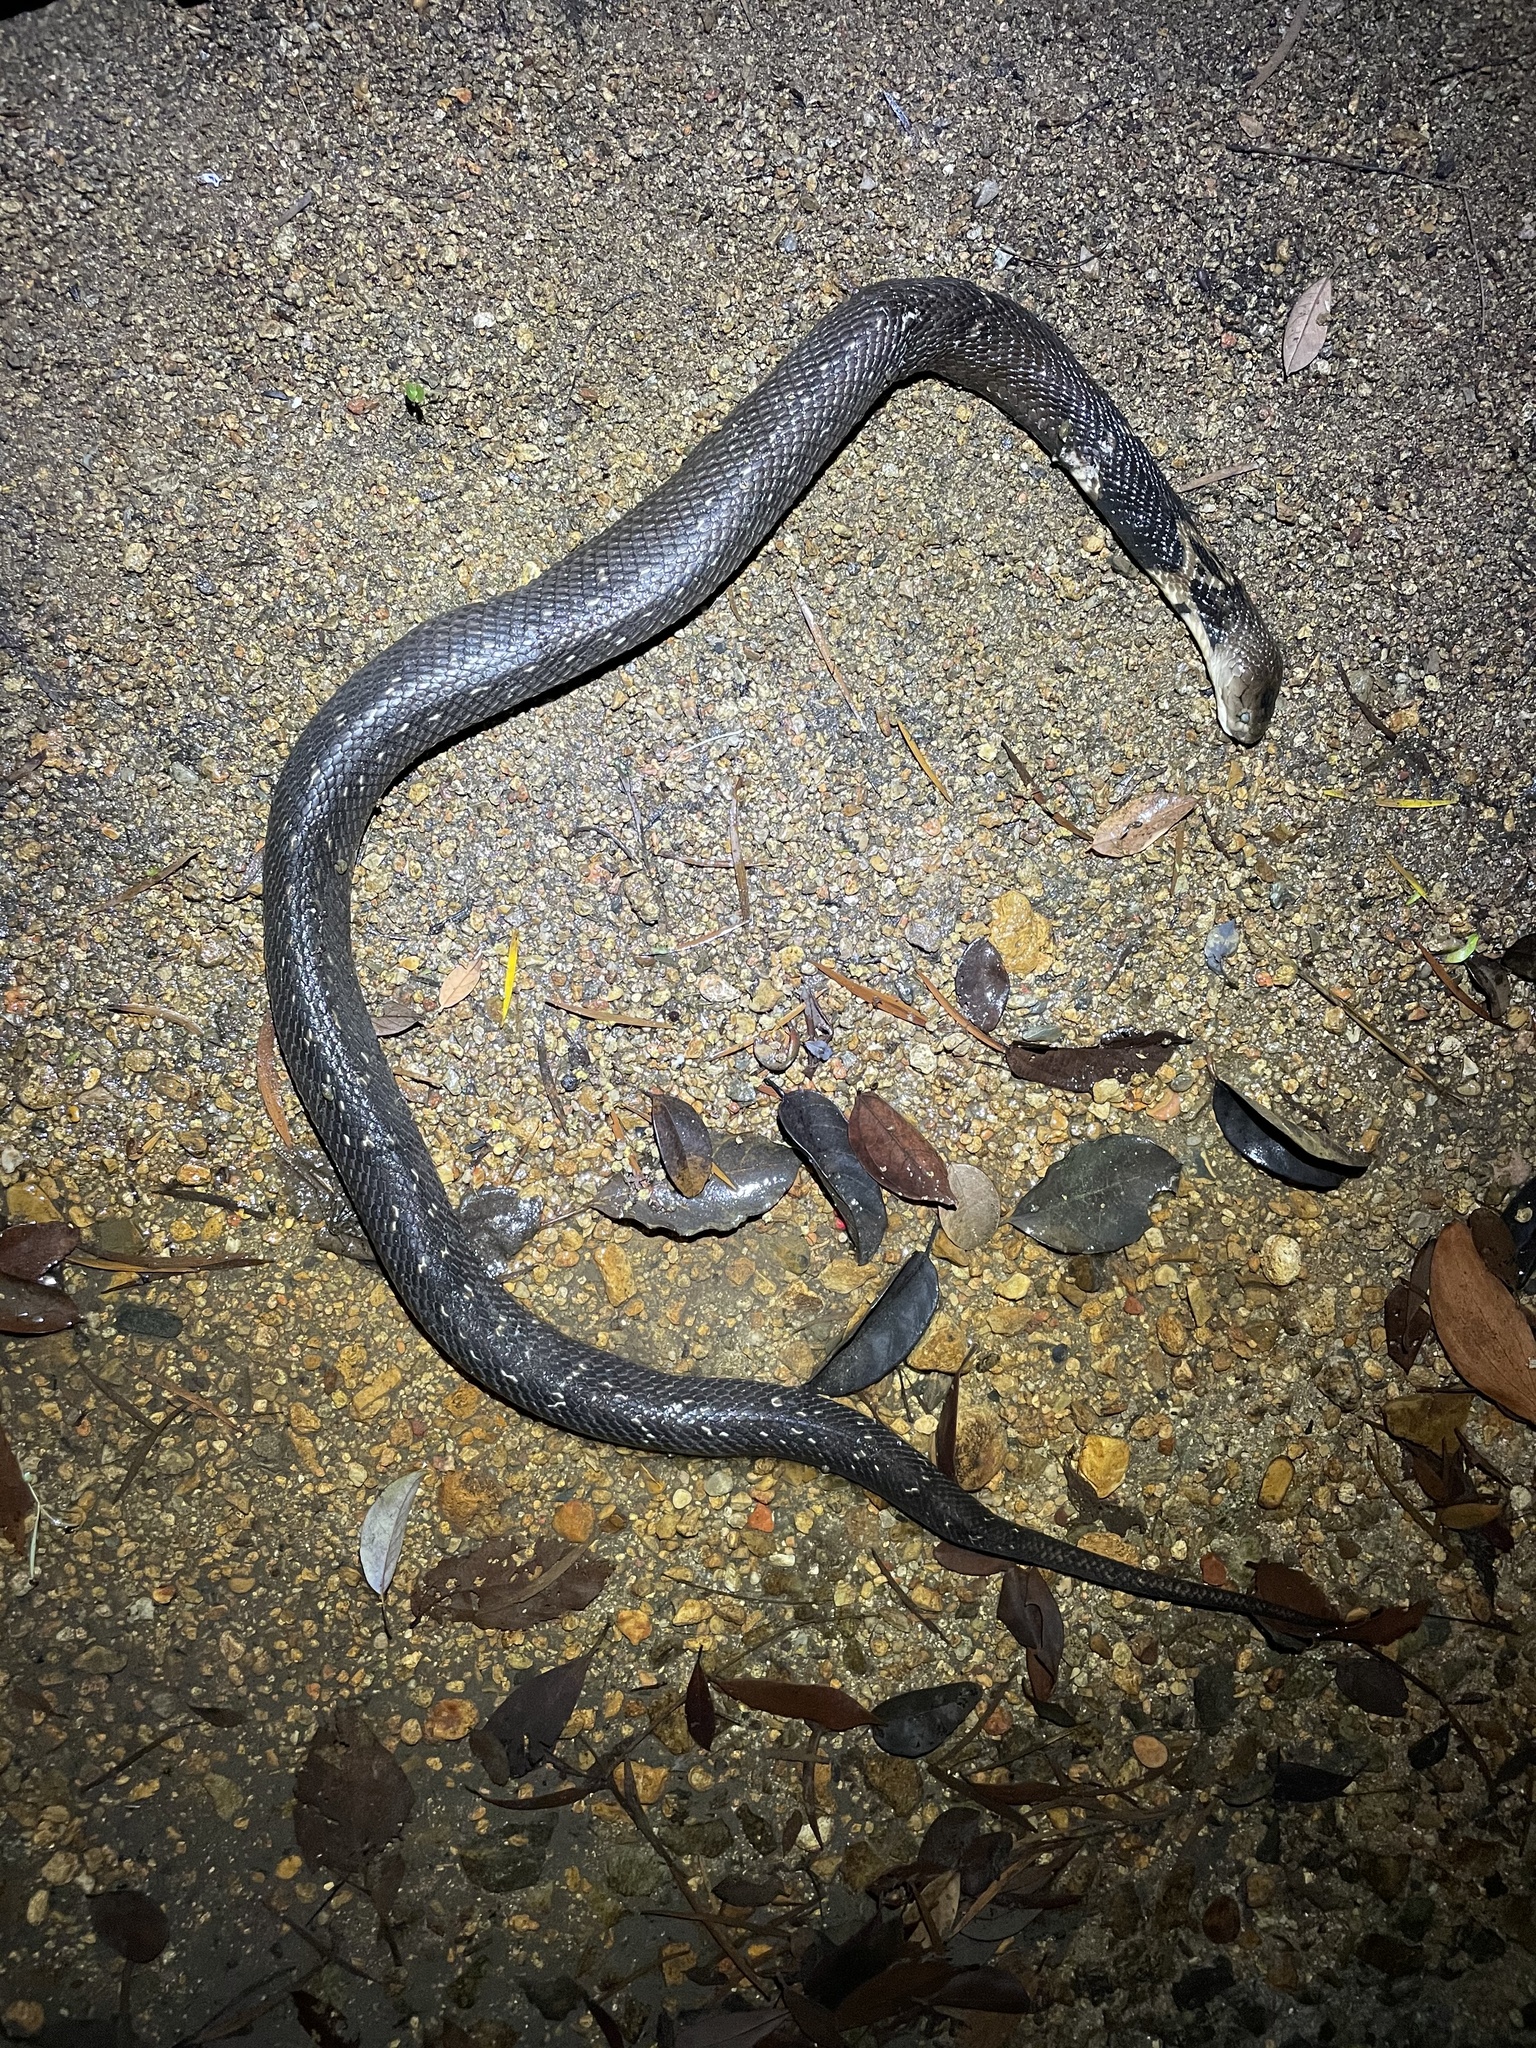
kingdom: Animalia
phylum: Chordata
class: Squamata
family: Elapidae
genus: Naja
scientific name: Naja atra
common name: Chinese cobra
